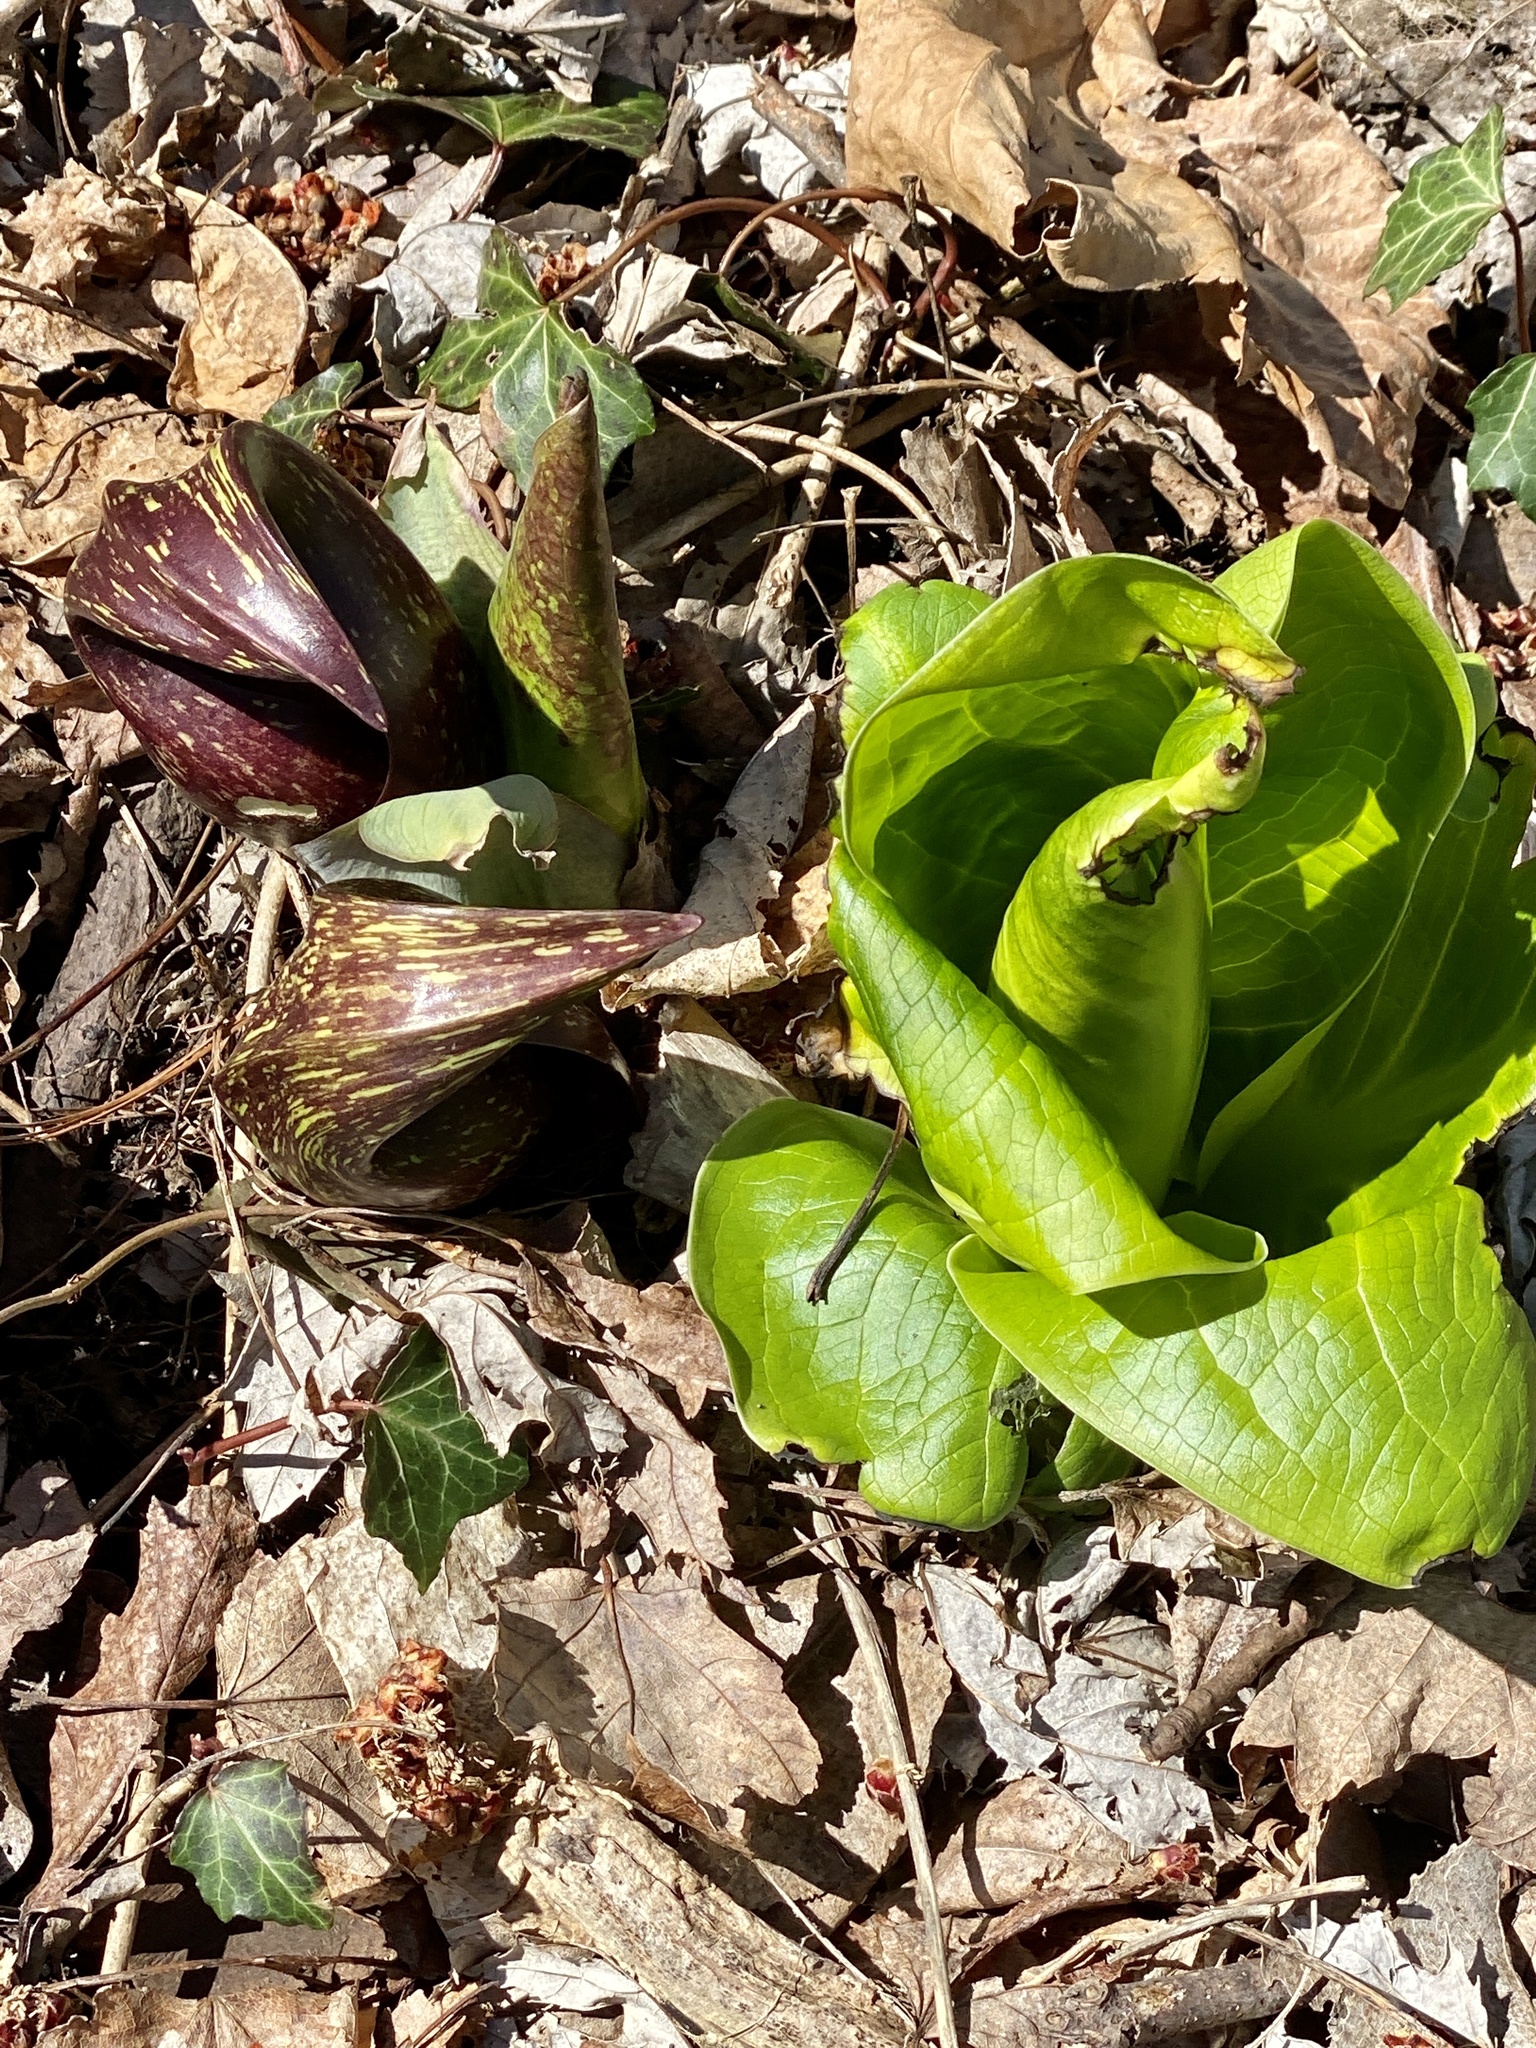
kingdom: Plantae
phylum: Tracheophyta
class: Liliopsida
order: Alismatales
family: Araceae
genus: Symplocarpus
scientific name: Symplocarpus foetidus
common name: Eastern skunk cabbage
